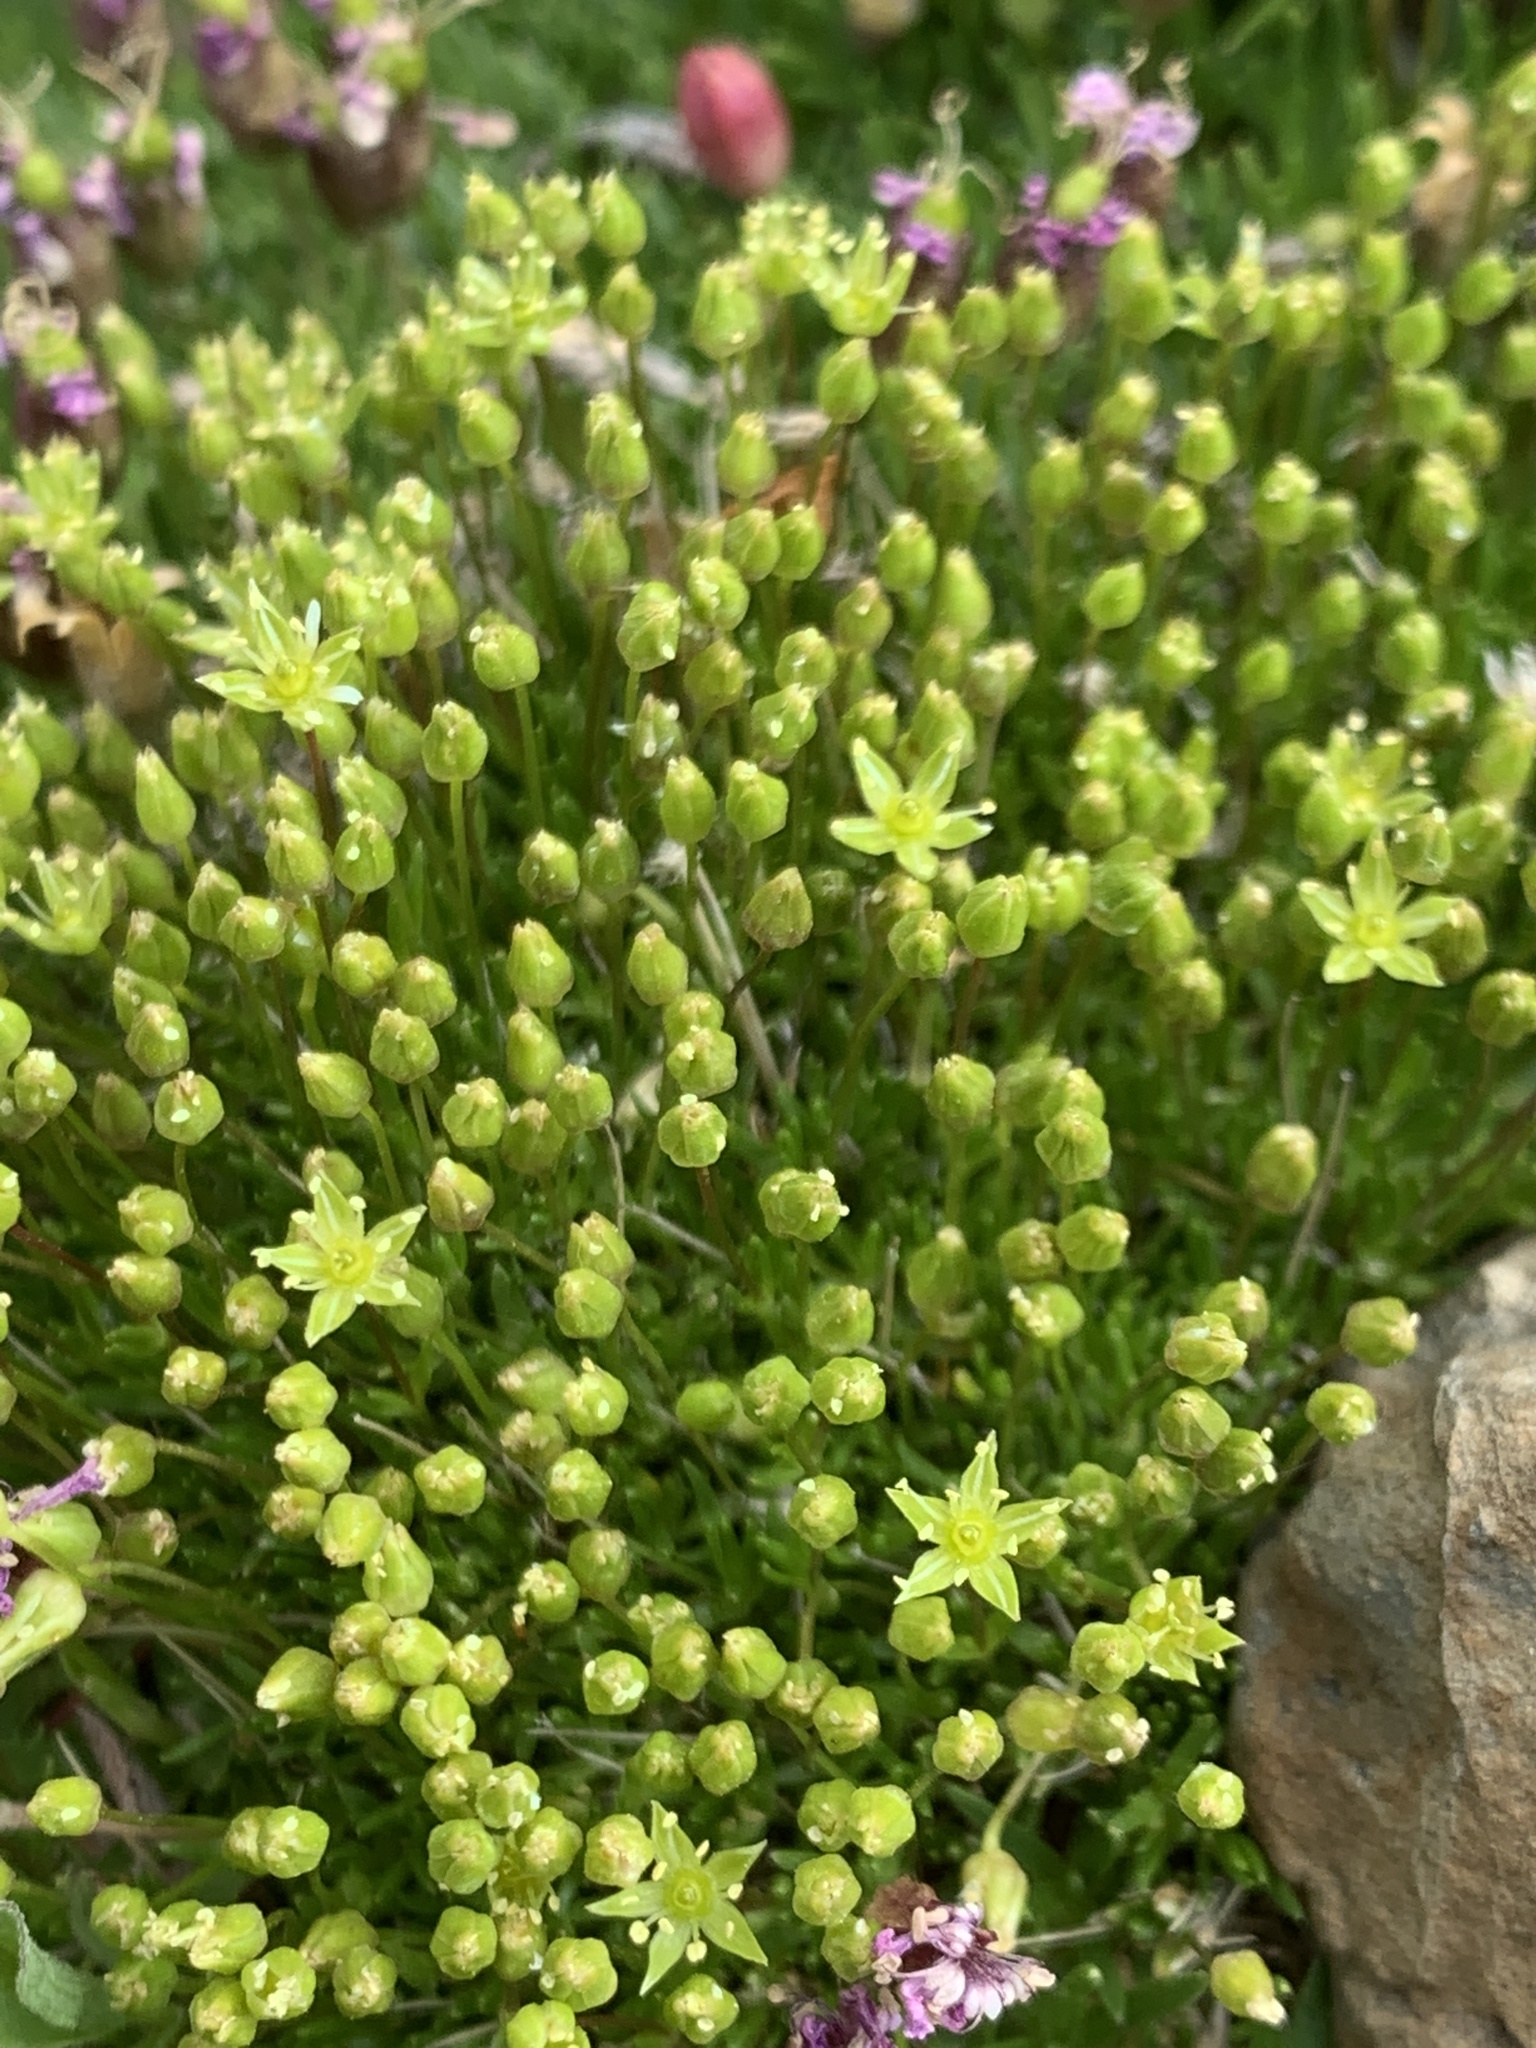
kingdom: Plantae
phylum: Tracheophyta
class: Magnoliopsida
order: Caryophyllales
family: Caryophyllaceae
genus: Sabulina
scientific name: Sabulina austromontana
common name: Columbia stitchwort
